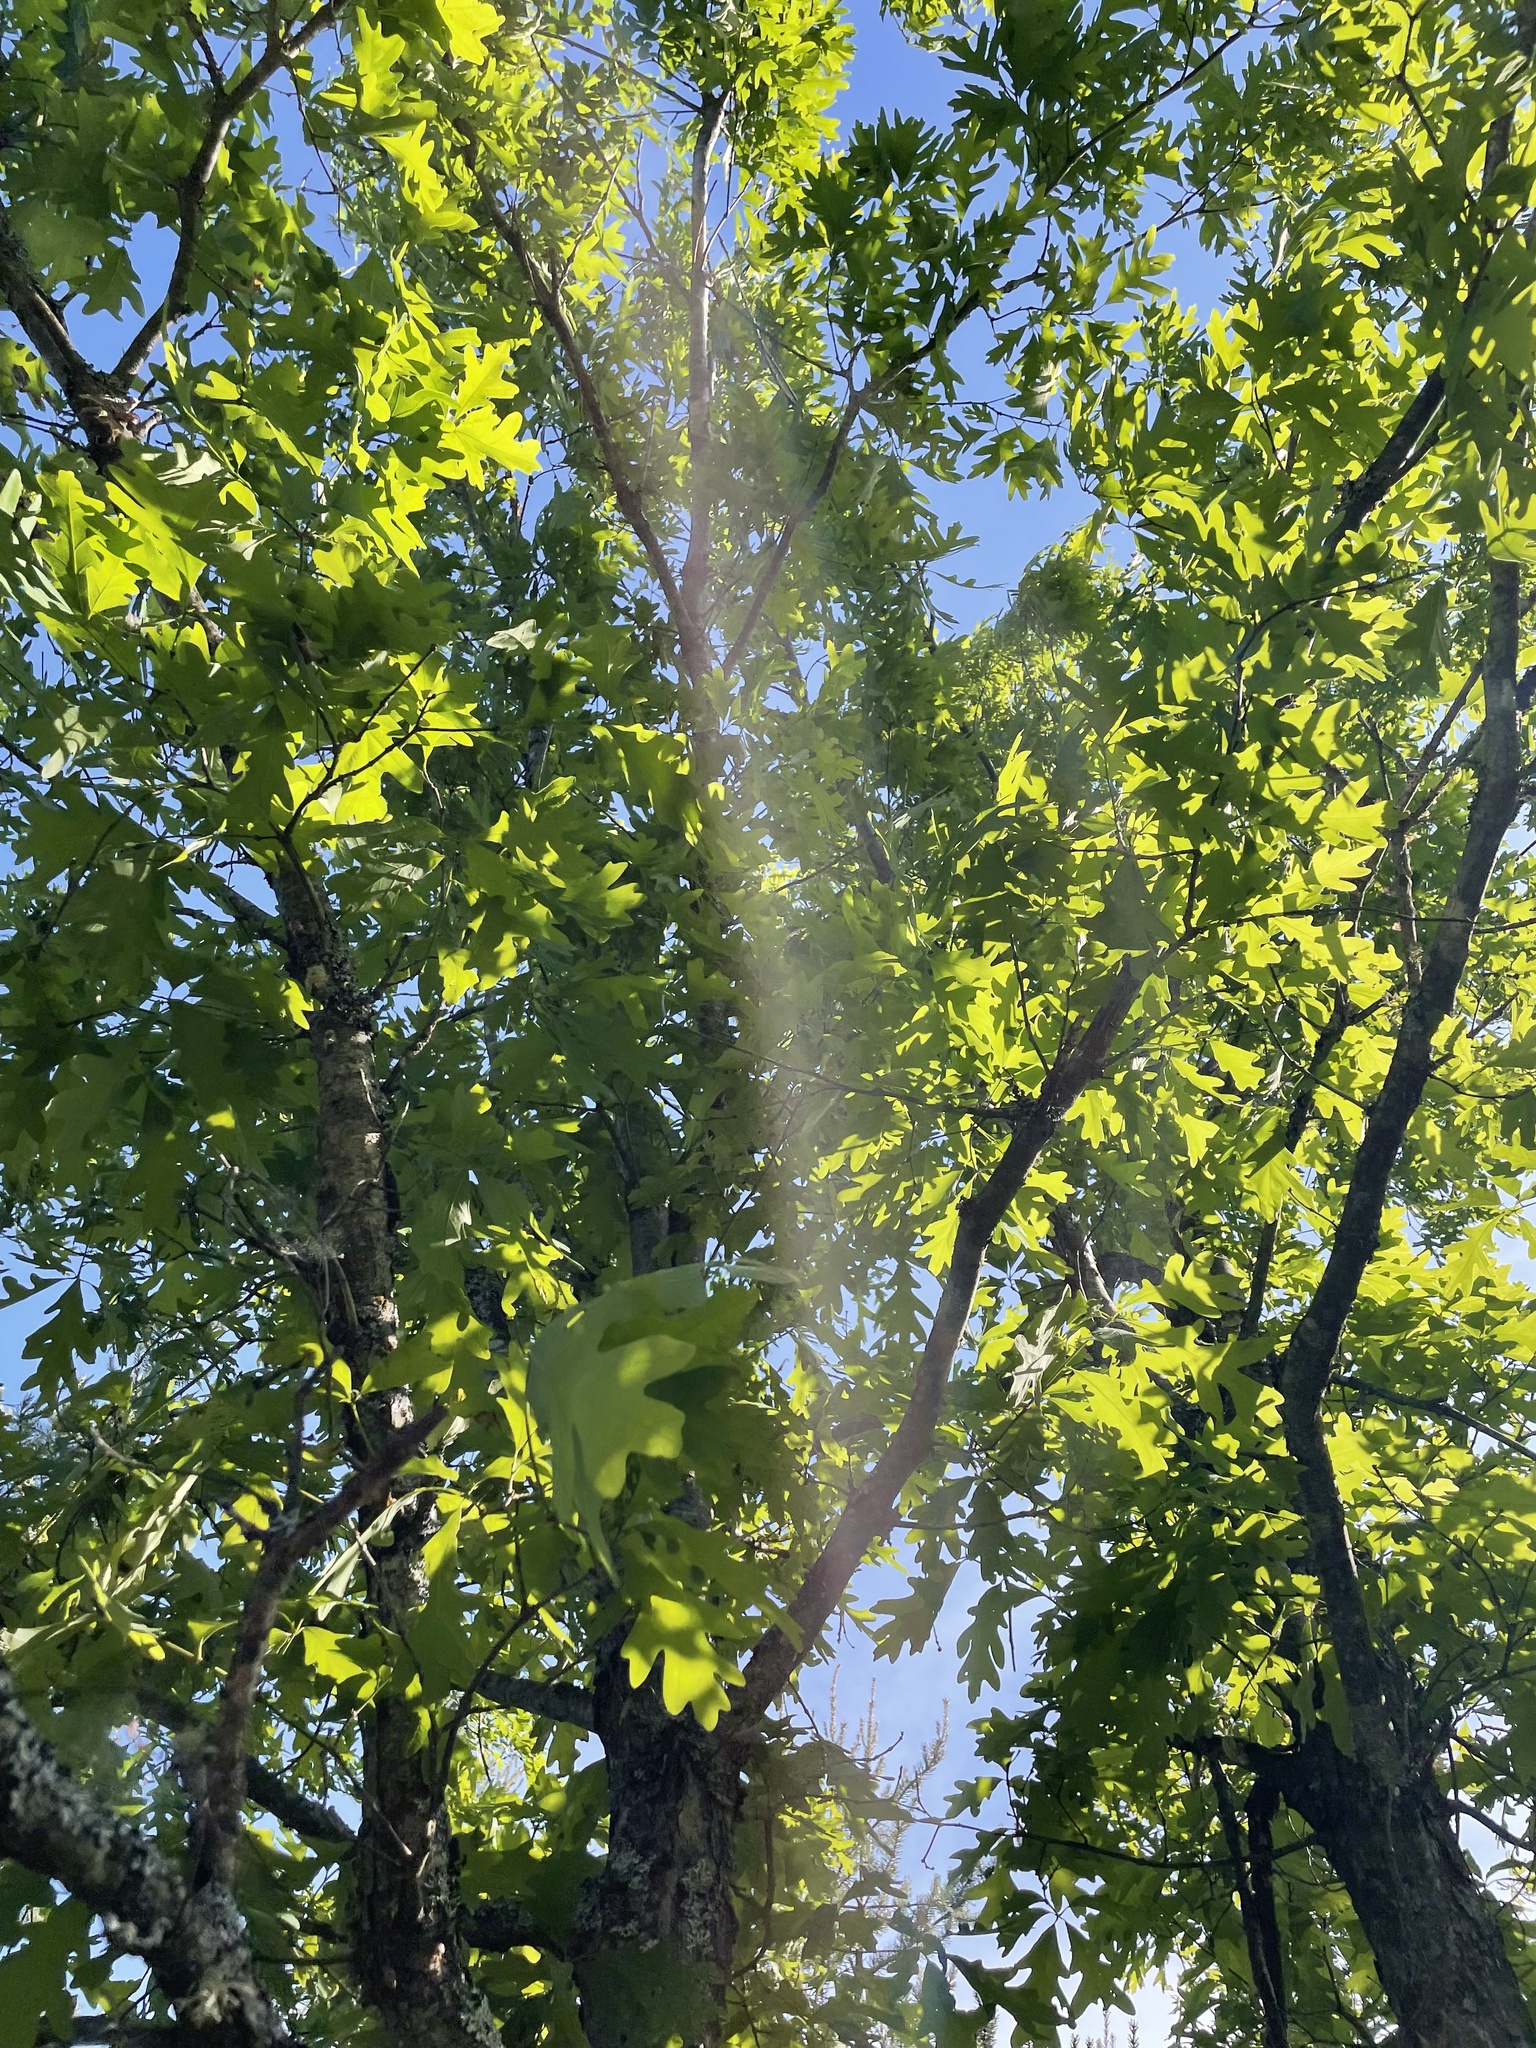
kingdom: Plantae
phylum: Tracheophyta
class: Magnoliopsida
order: Fagales
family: Fagaceae
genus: Quercus
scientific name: Quercus alba
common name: White oak
